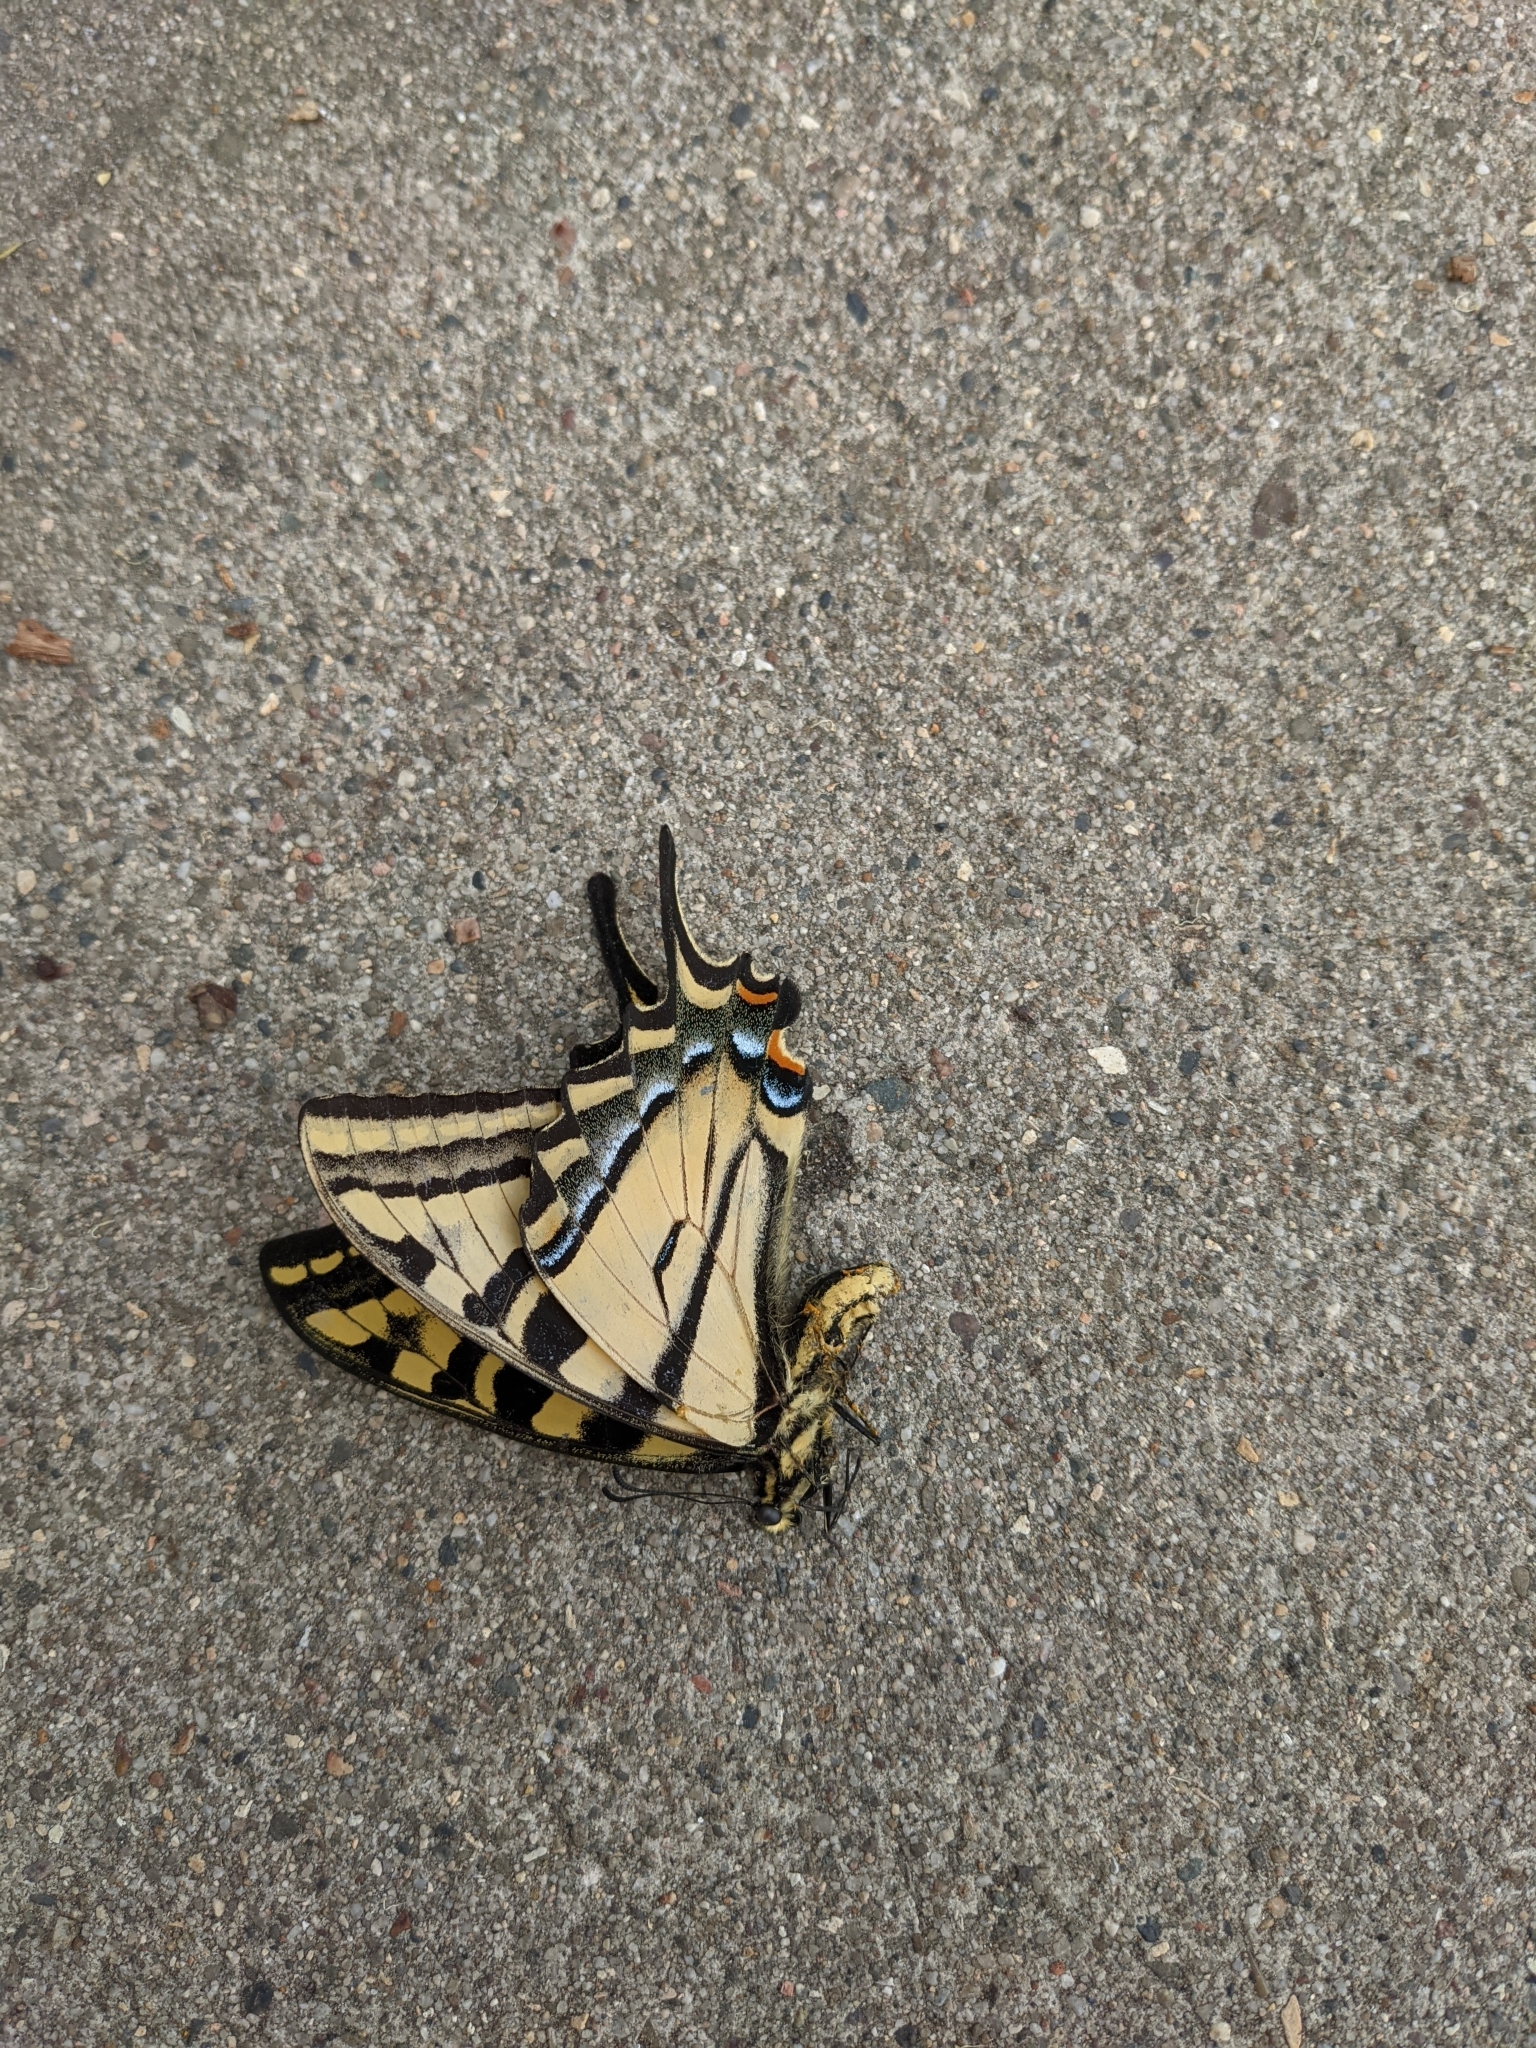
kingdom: Animalia
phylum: Arthropoda
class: Insecta
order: Lepidoptera
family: Papilionidae
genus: Papilio
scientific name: Papilio rutulus
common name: Western tiger swallowtail
